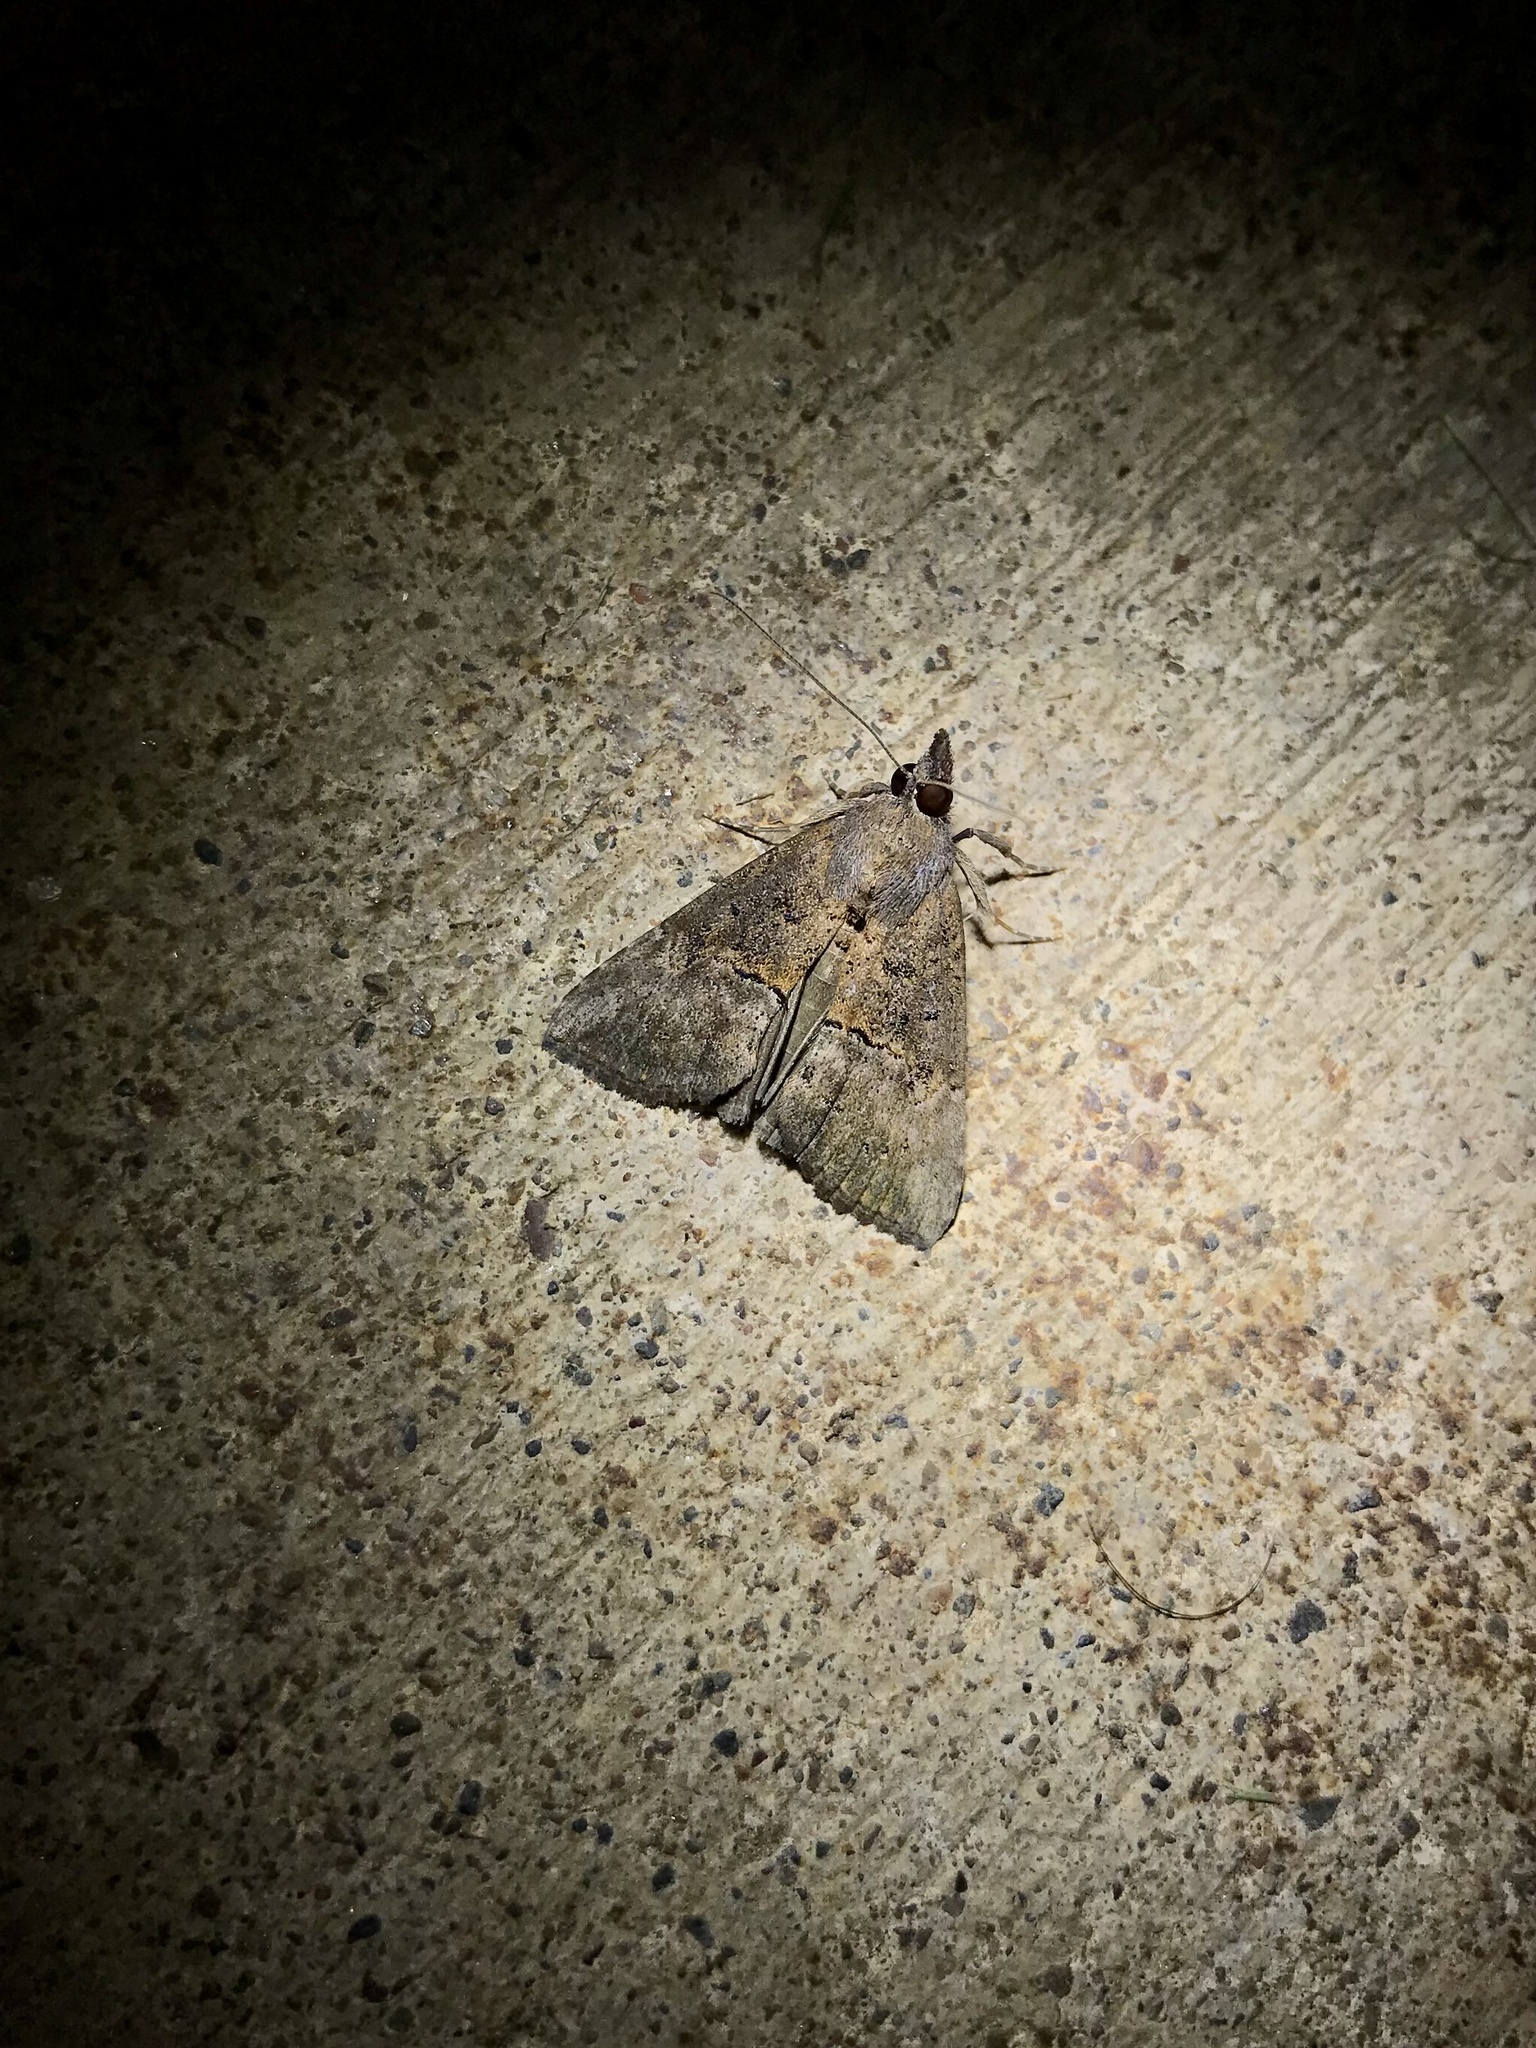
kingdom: Animalia
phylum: Arthropoda
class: Insecta
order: Lepidoptera
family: Erebidae
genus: Hypena
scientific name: Hypena scabra
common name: Green cloverworm
